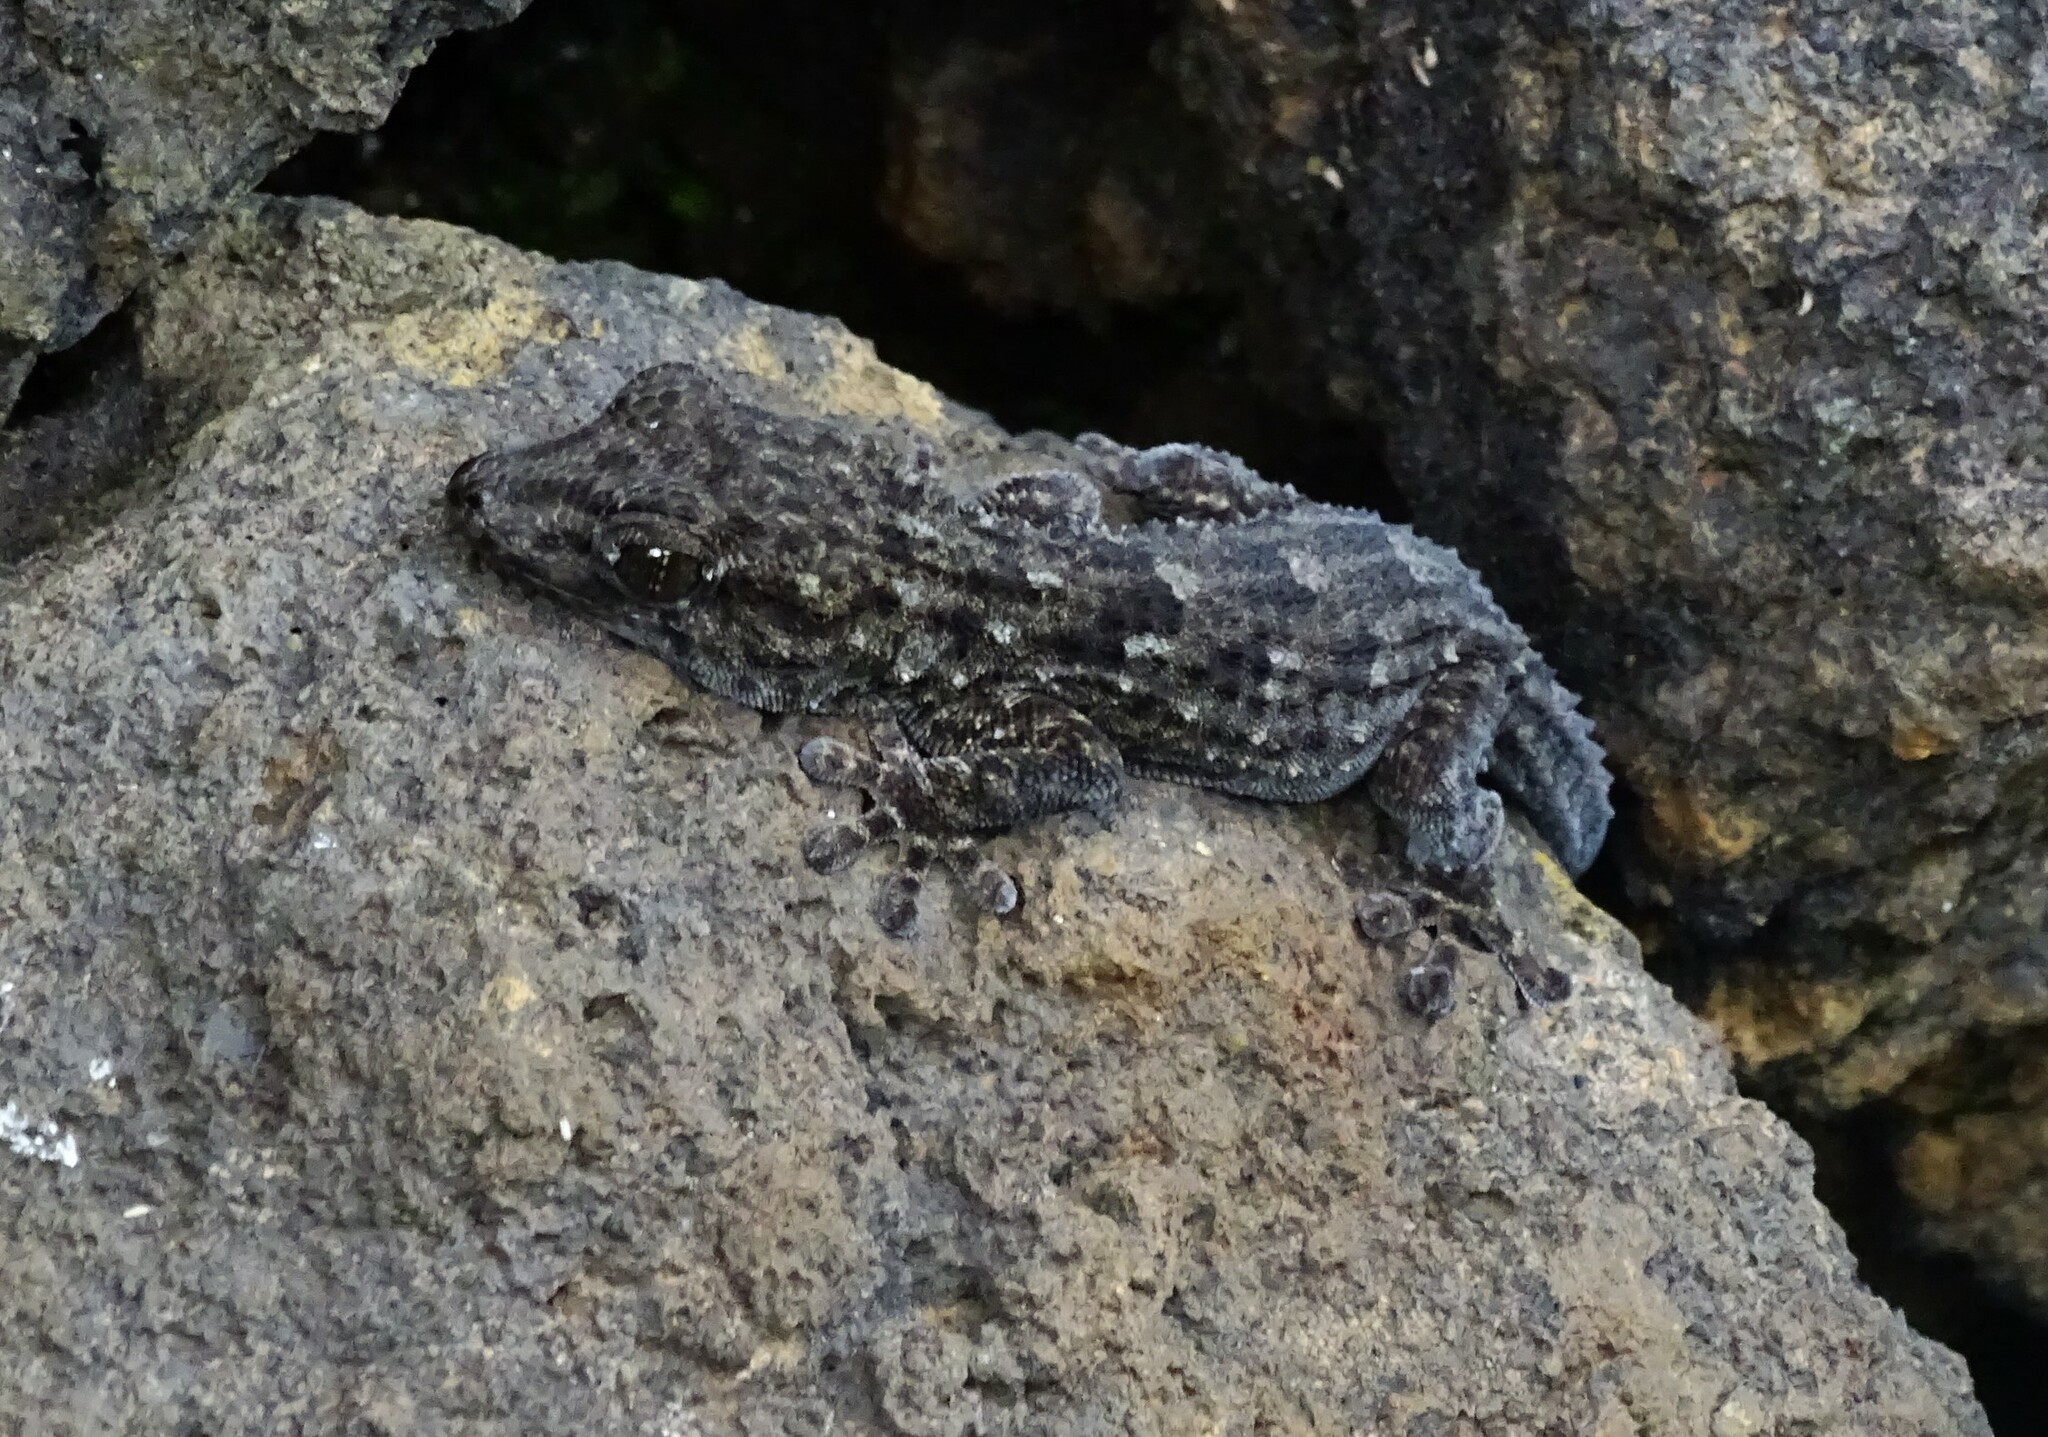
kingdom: Animalia
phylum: Chordata
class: Squamata
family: Phyllodactylidae
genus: Tarentola
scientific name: Tarentola delalandii
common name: Tenerife wall gecko
